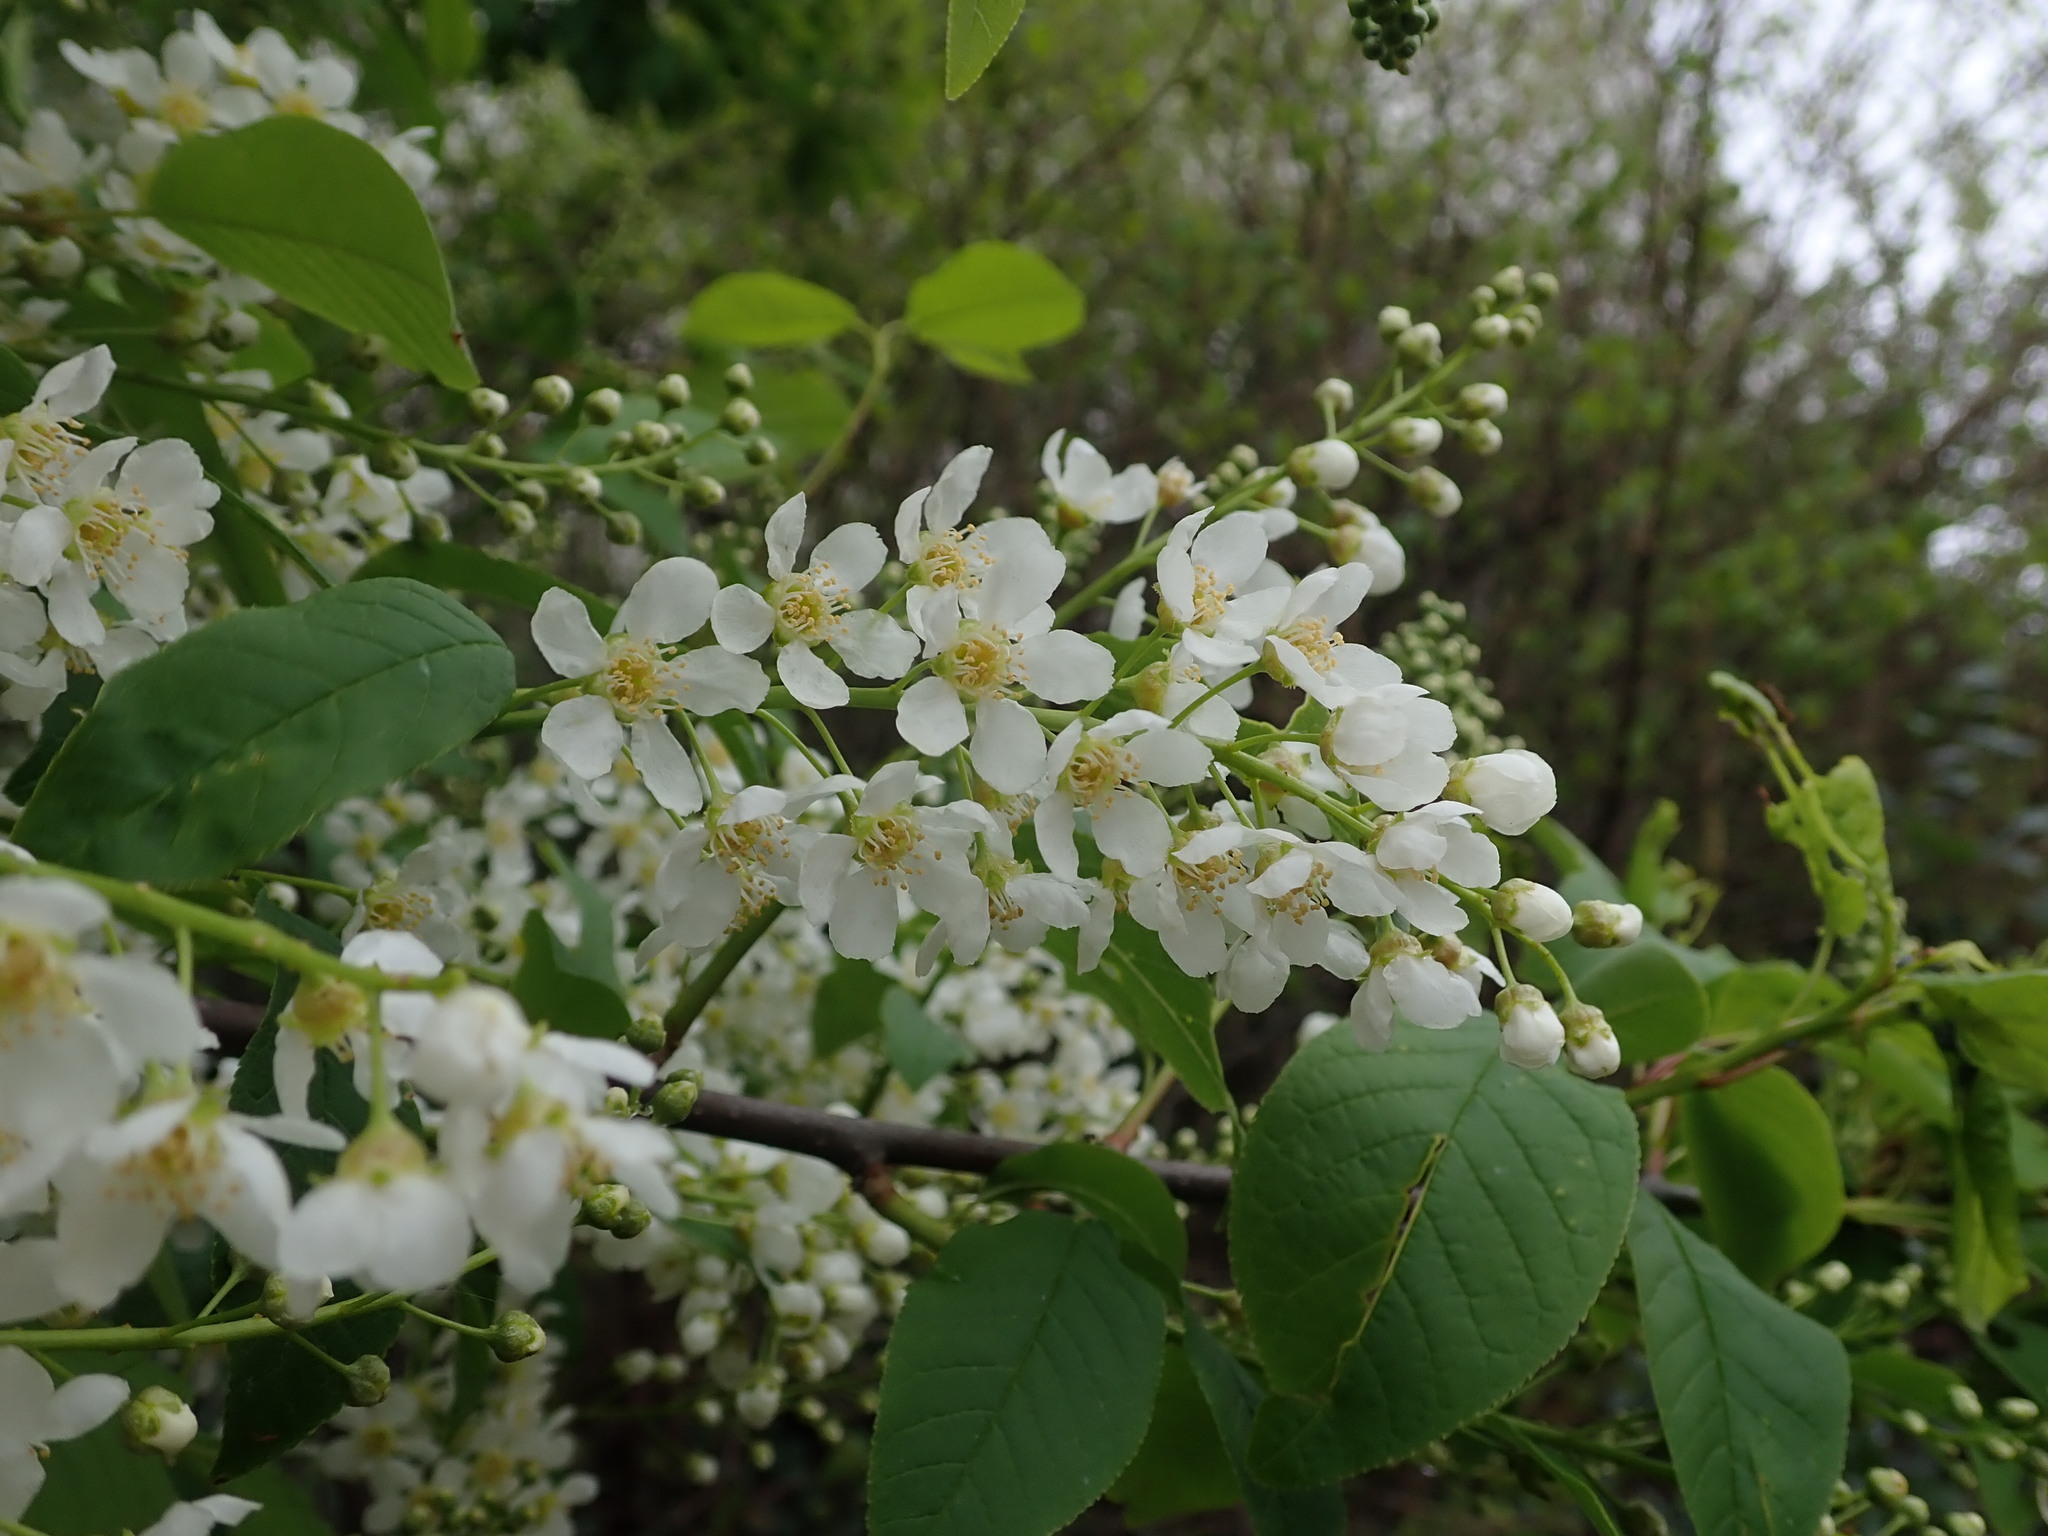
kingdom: Plantae
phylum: Tracheophyta
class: Magnoliopsida
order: Rosales
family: Rosaceae
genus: Prunus
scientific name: Prunus padus
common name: Bird cherry
